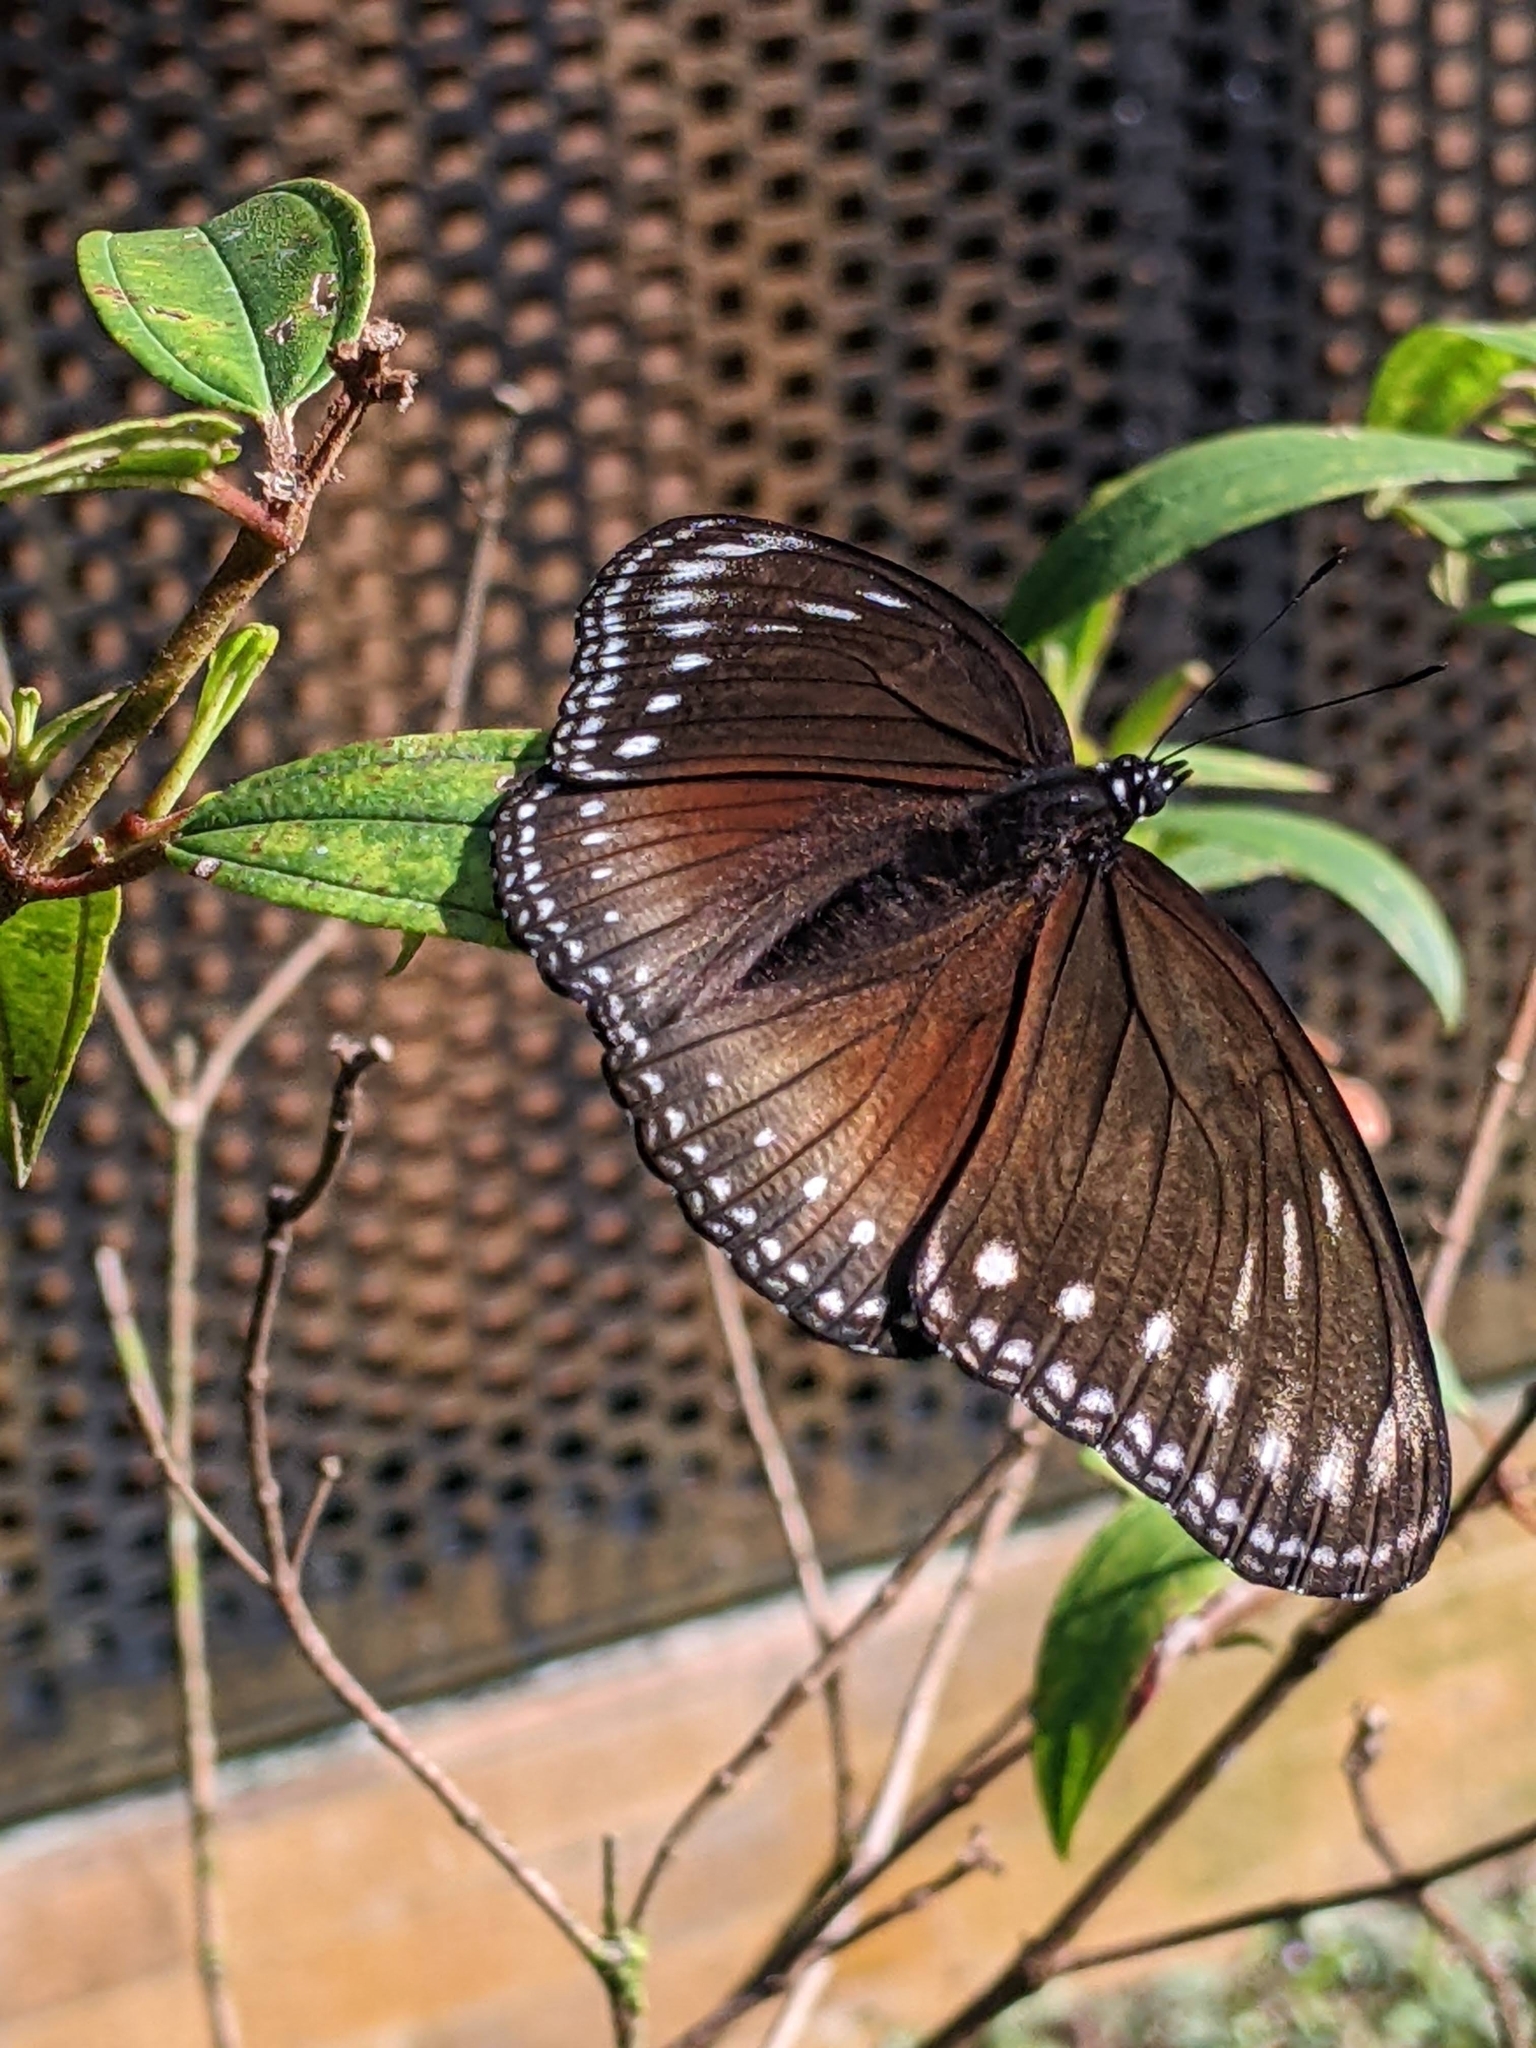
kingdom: Animalia
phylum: Arthropoda
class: Insecta
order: Lepidoptera
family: Nymphalidae
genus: Hypolimnas
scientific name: Hypolimnas anomala
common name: Malayan eggfly
